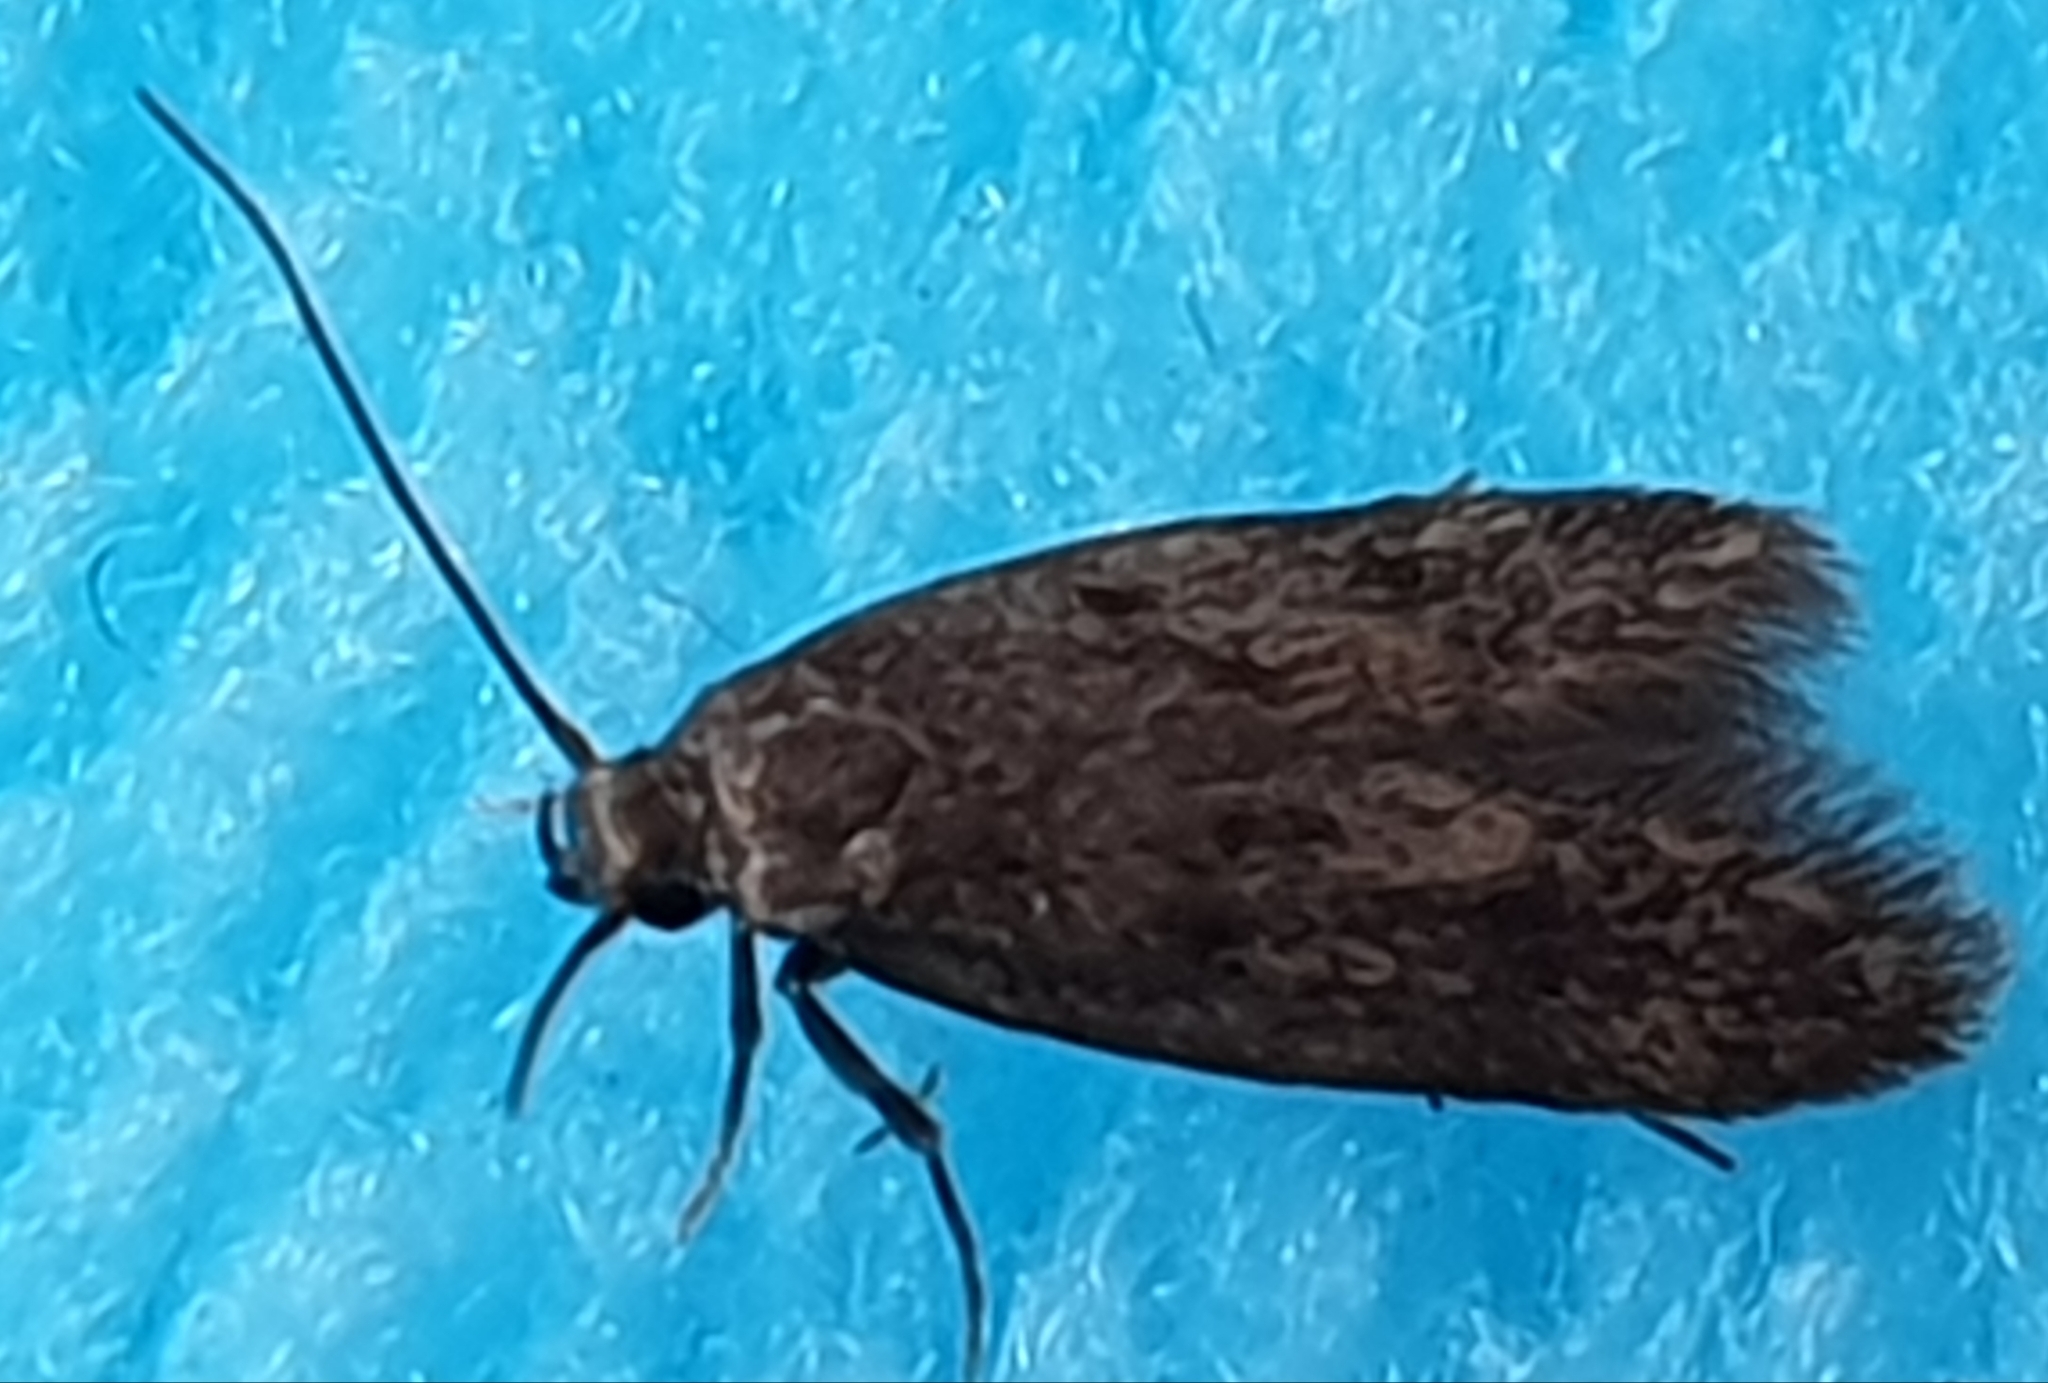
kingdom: Animalia
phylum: Arthropoda
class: Insecta
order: Lepidoptera
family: Oecophoridae
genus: Hofmannophila
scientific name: Hofmannophila pseudospretella
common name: Brown house moth
